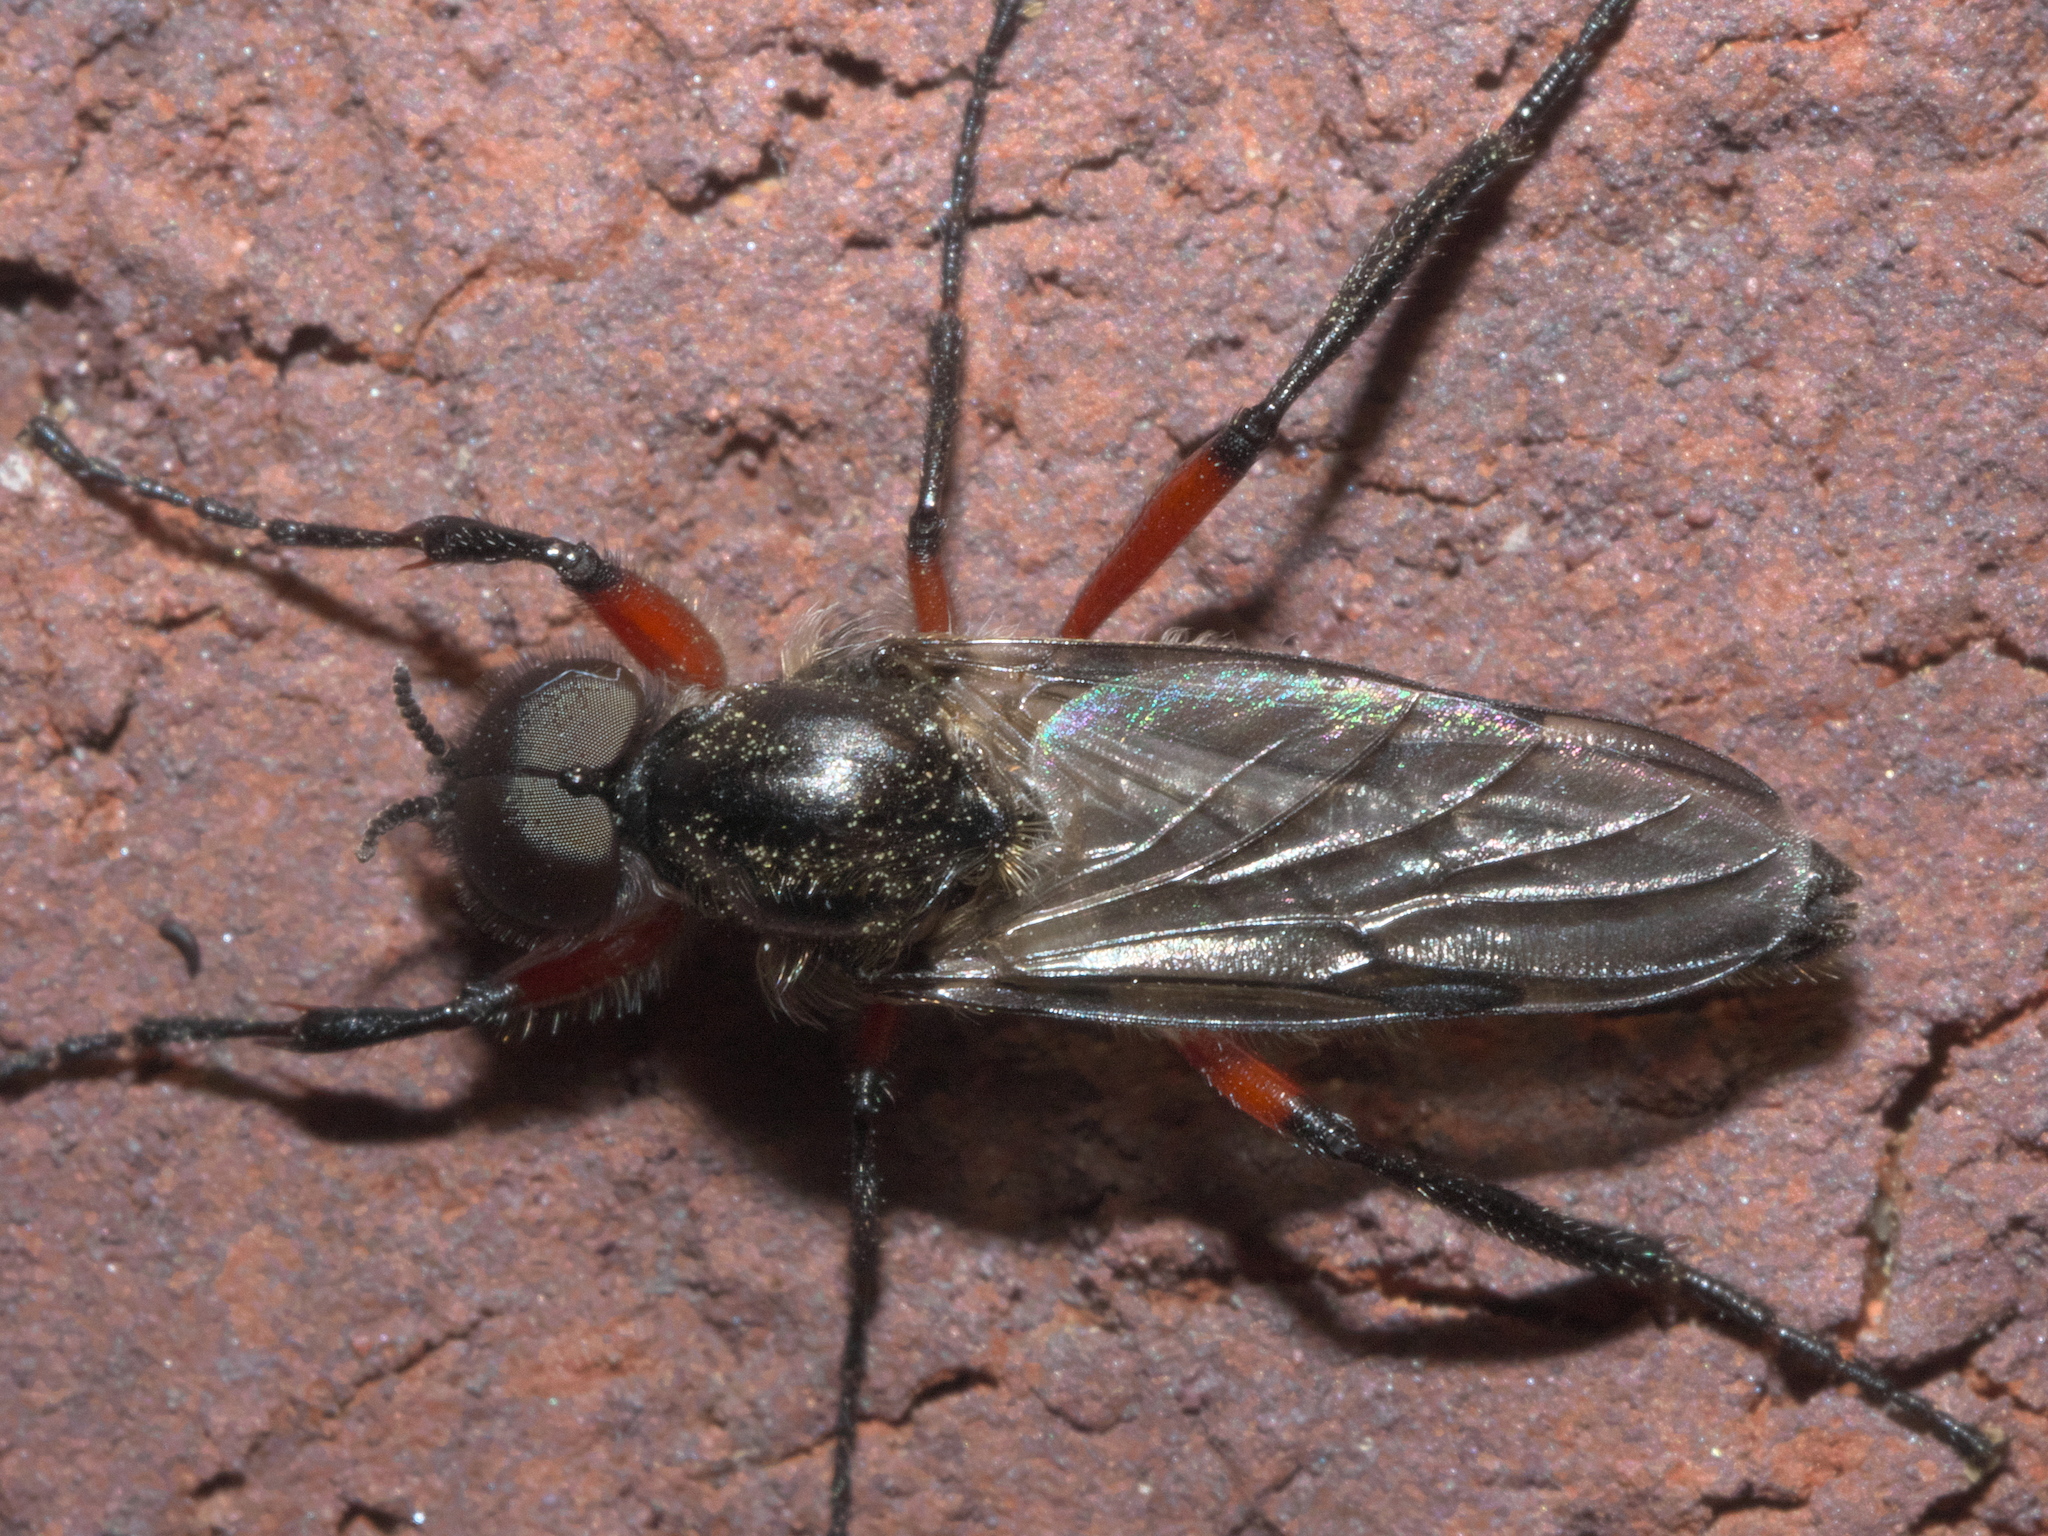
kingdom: Animalia
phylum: Arthropoda
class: Insecta
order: Diptera
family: Bibionidae
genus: Bibio
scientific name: Bibio femoratus
